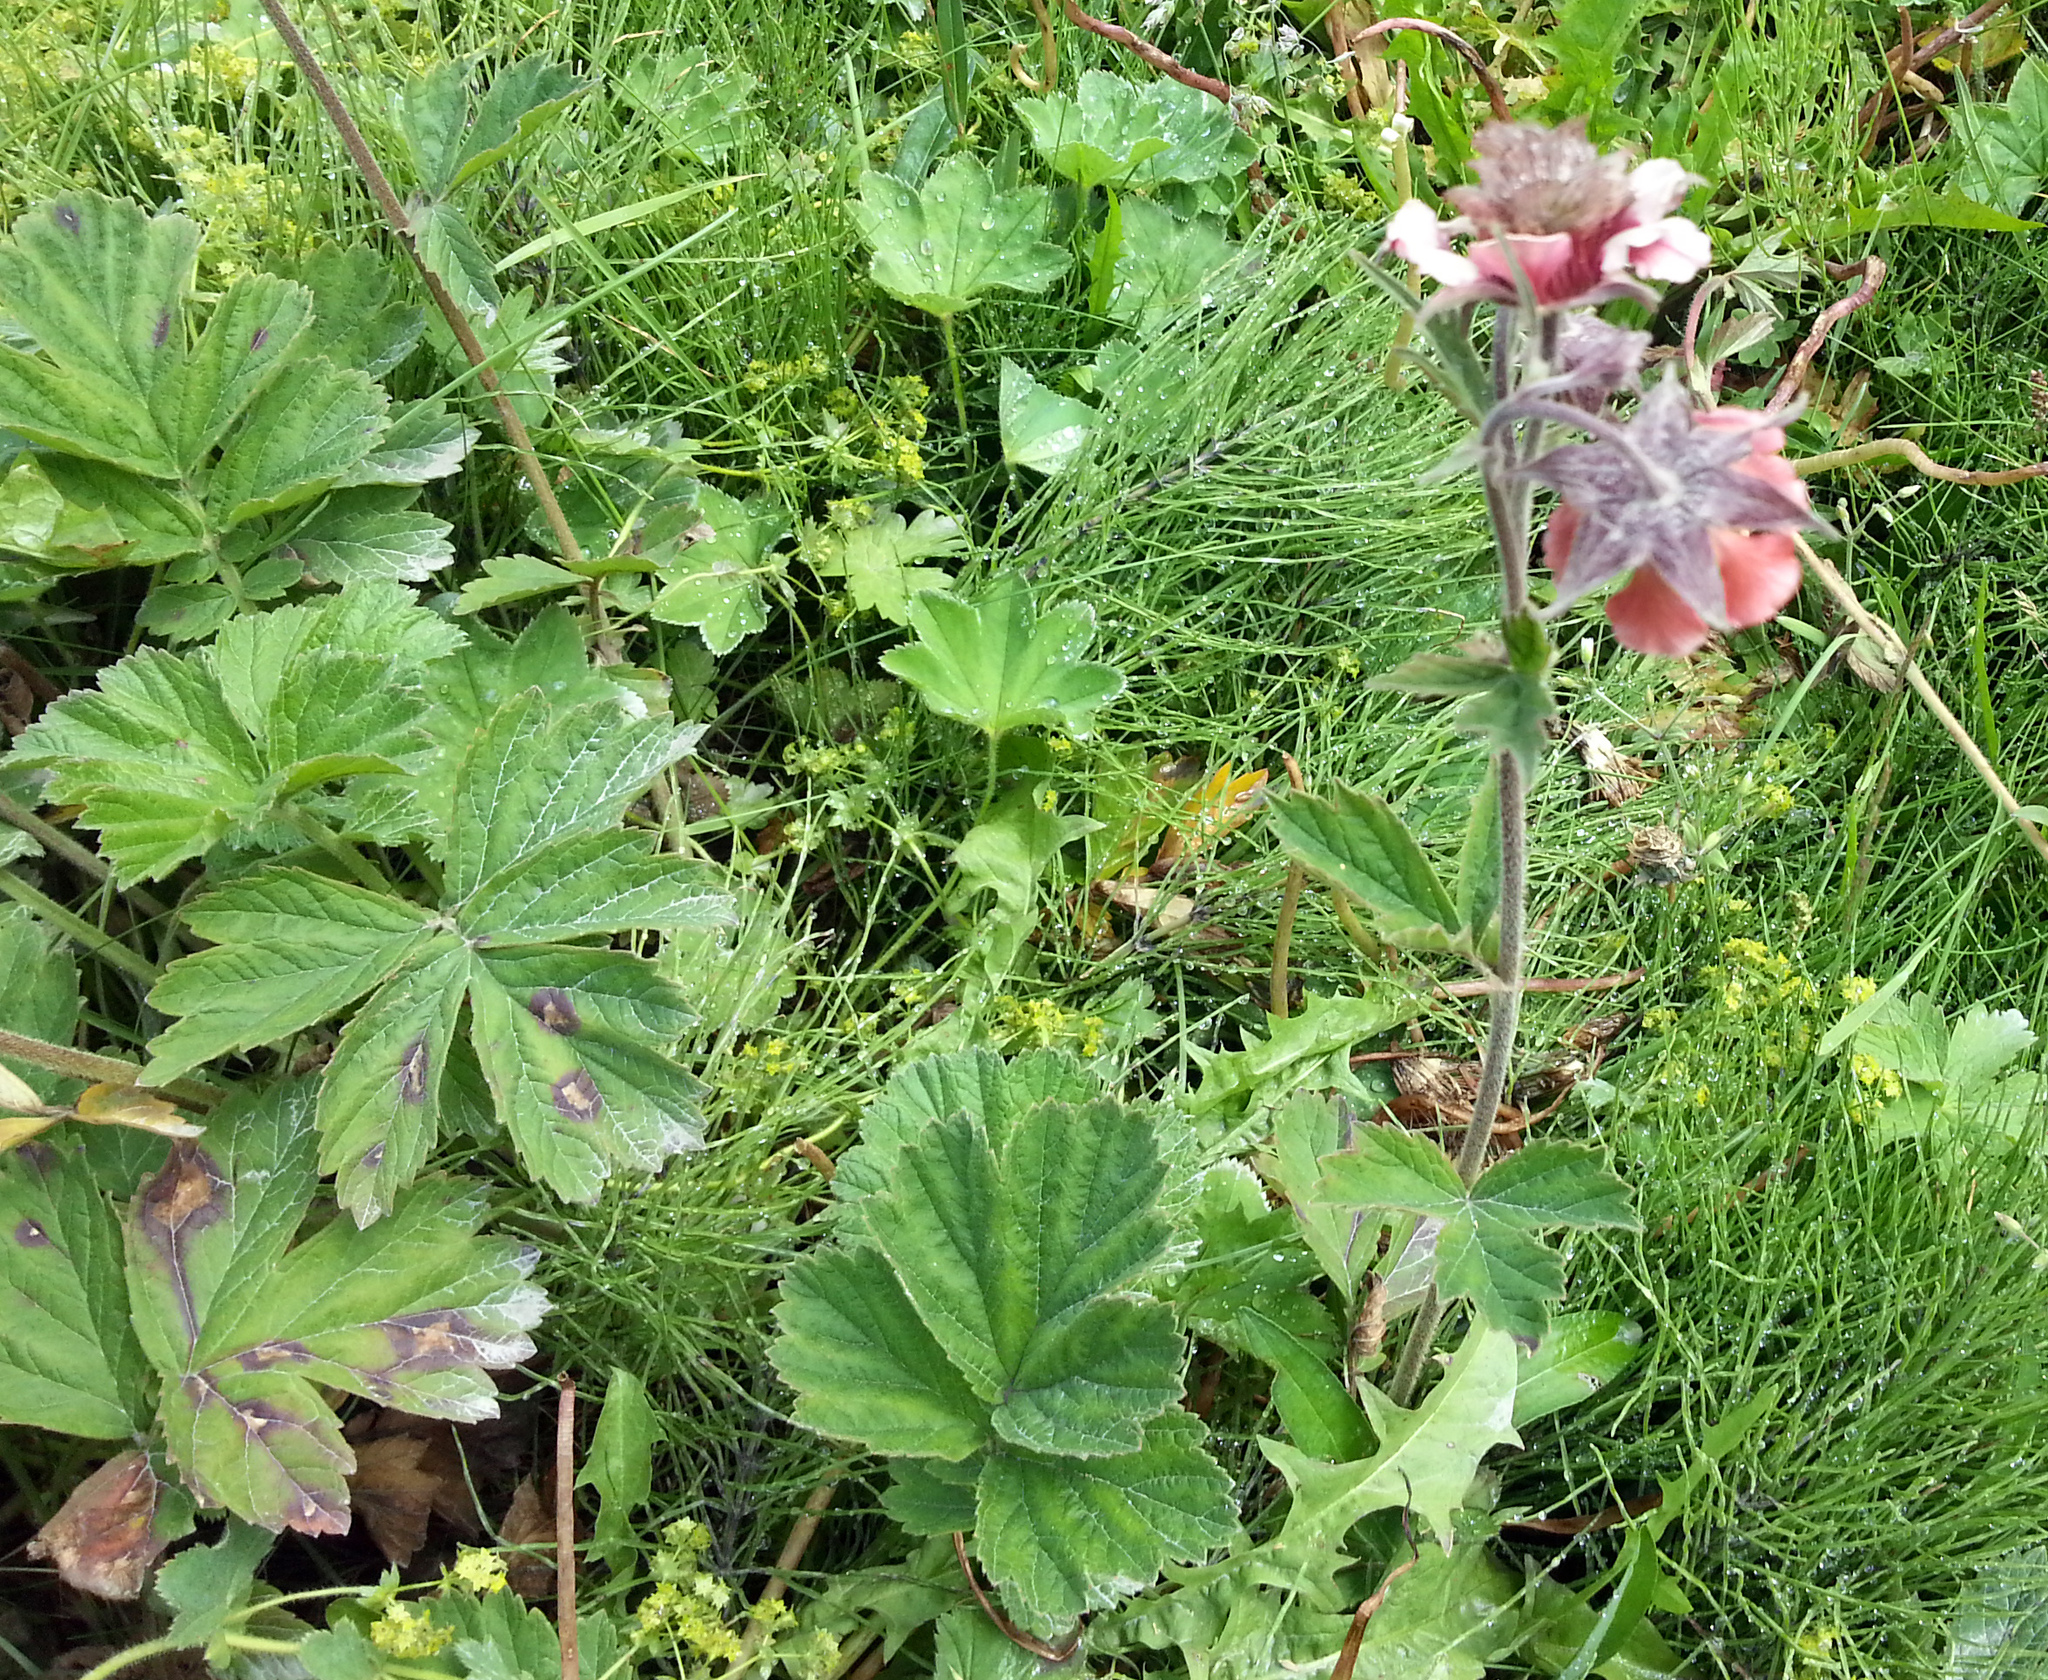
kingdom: Plantae
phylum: Tracheophyta
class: Magnoliopsida
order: Rosales
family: Rosaceae
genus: Geum
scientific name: Geum rivale
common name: Water avens
